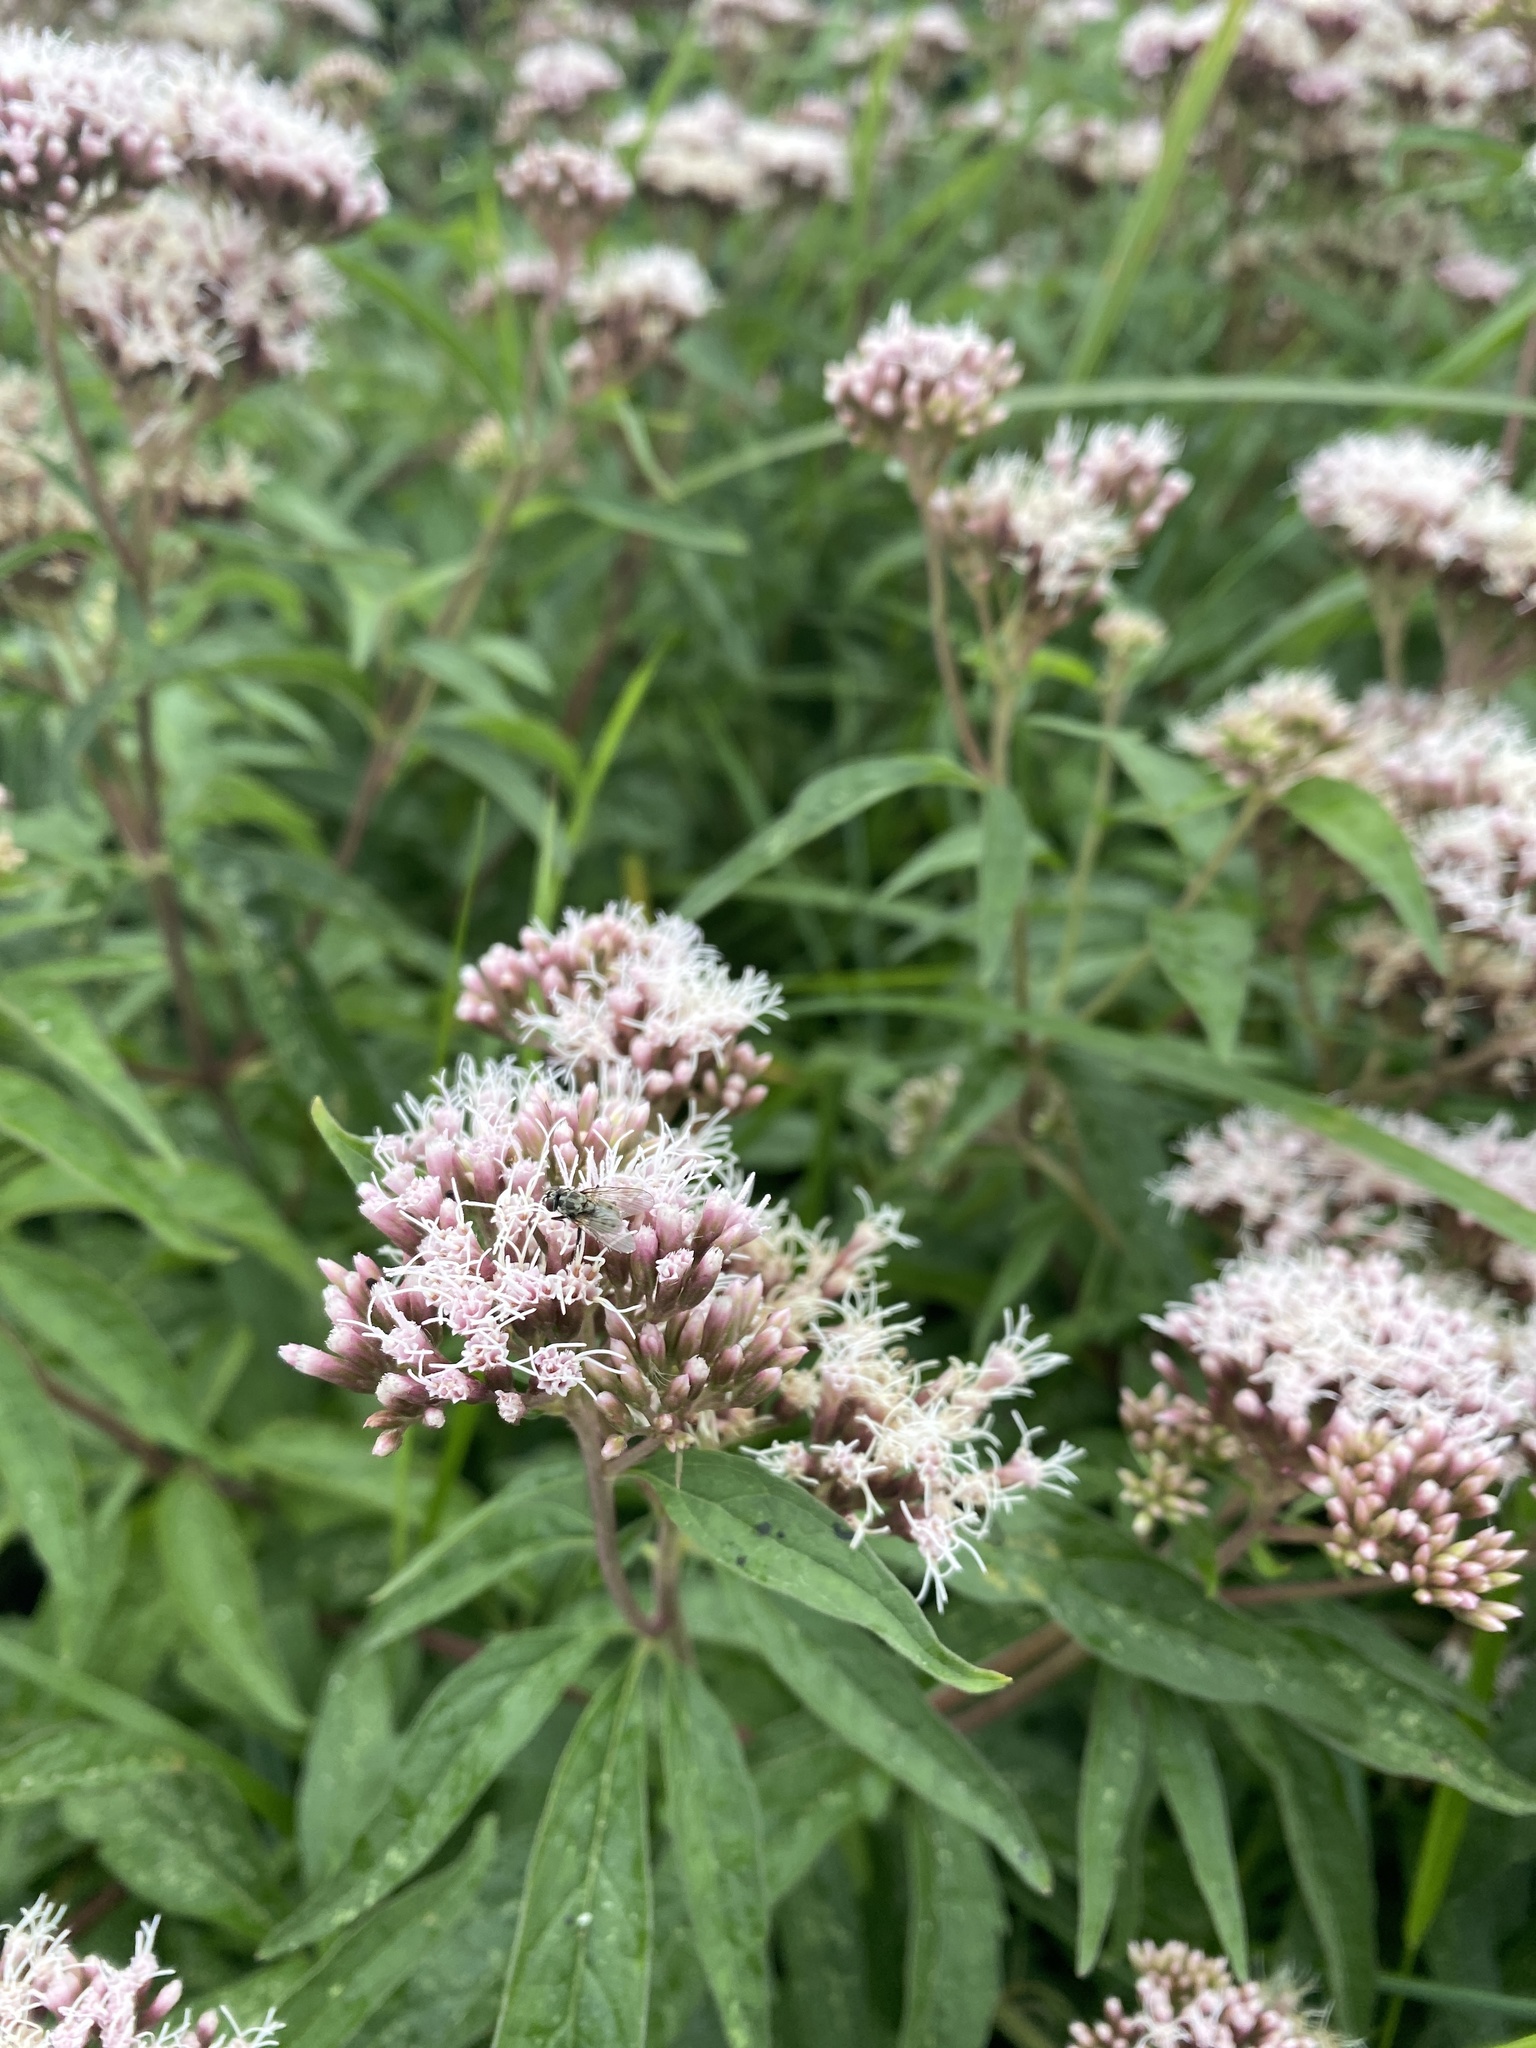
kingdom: Plantae
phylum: Tracheophyta
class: Magnoliopsida
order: Asterales
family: Asteraceae
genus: Eupatorium
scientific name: Eupatorium cannabinum
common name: Hemp-agrimony
